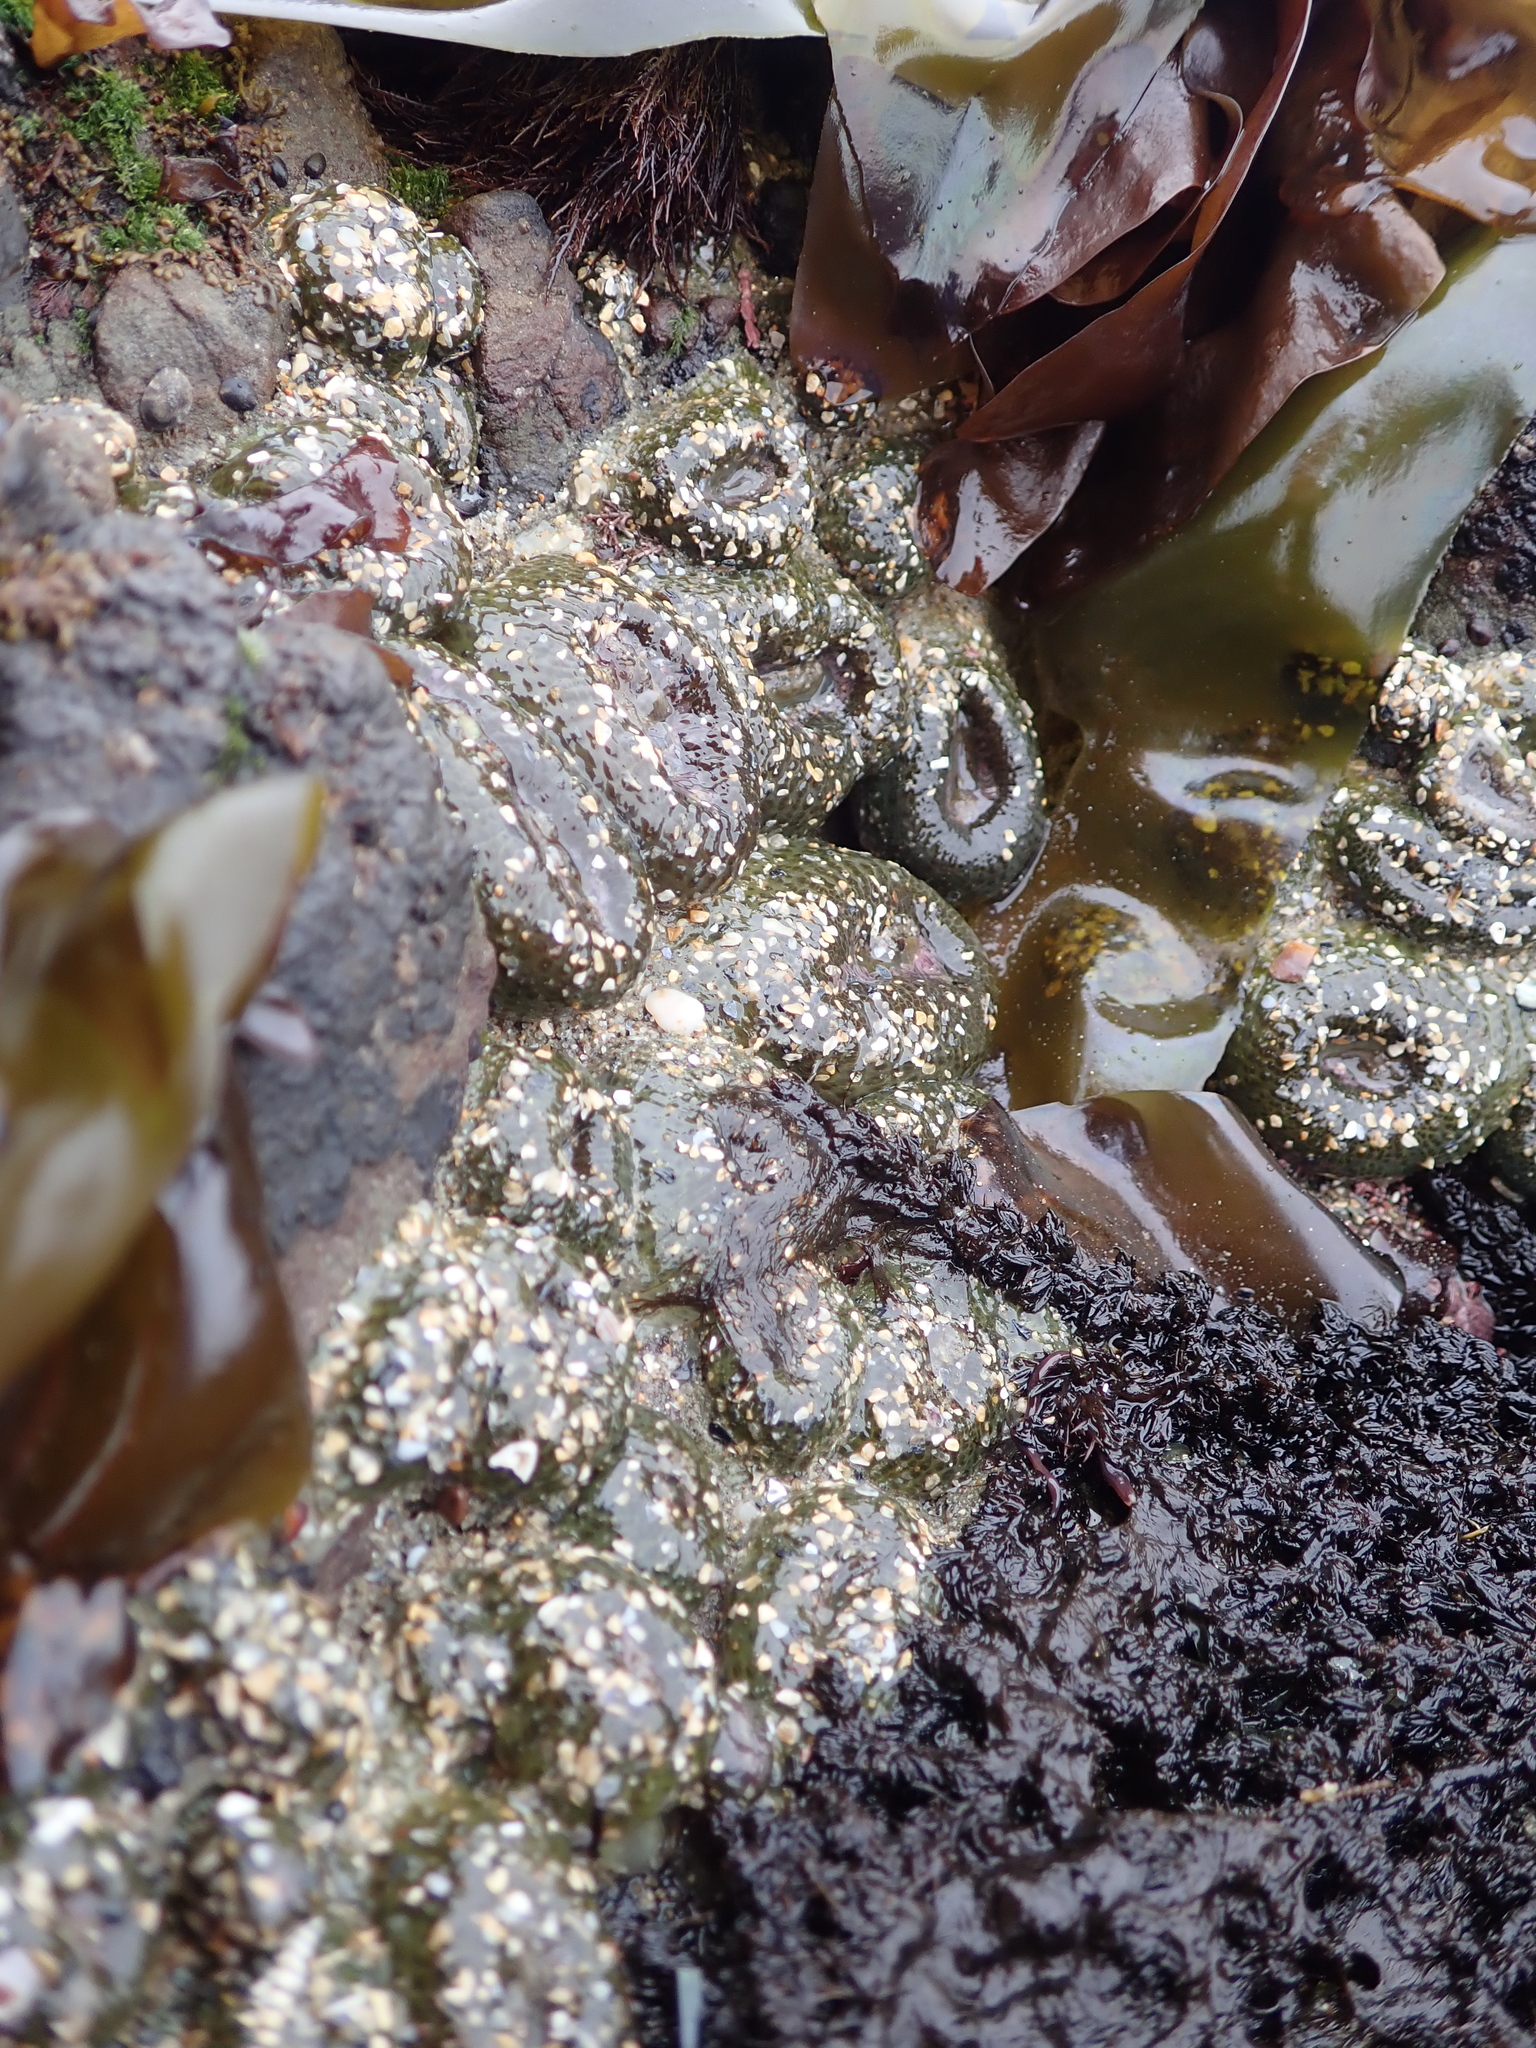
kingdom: Animalia
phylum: Cnidaria
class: Anthozoa
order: Actiniaria
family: Actiniidae
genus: Anthopleura
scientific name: Anthopleura elegantissima
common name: Clonal anemone
